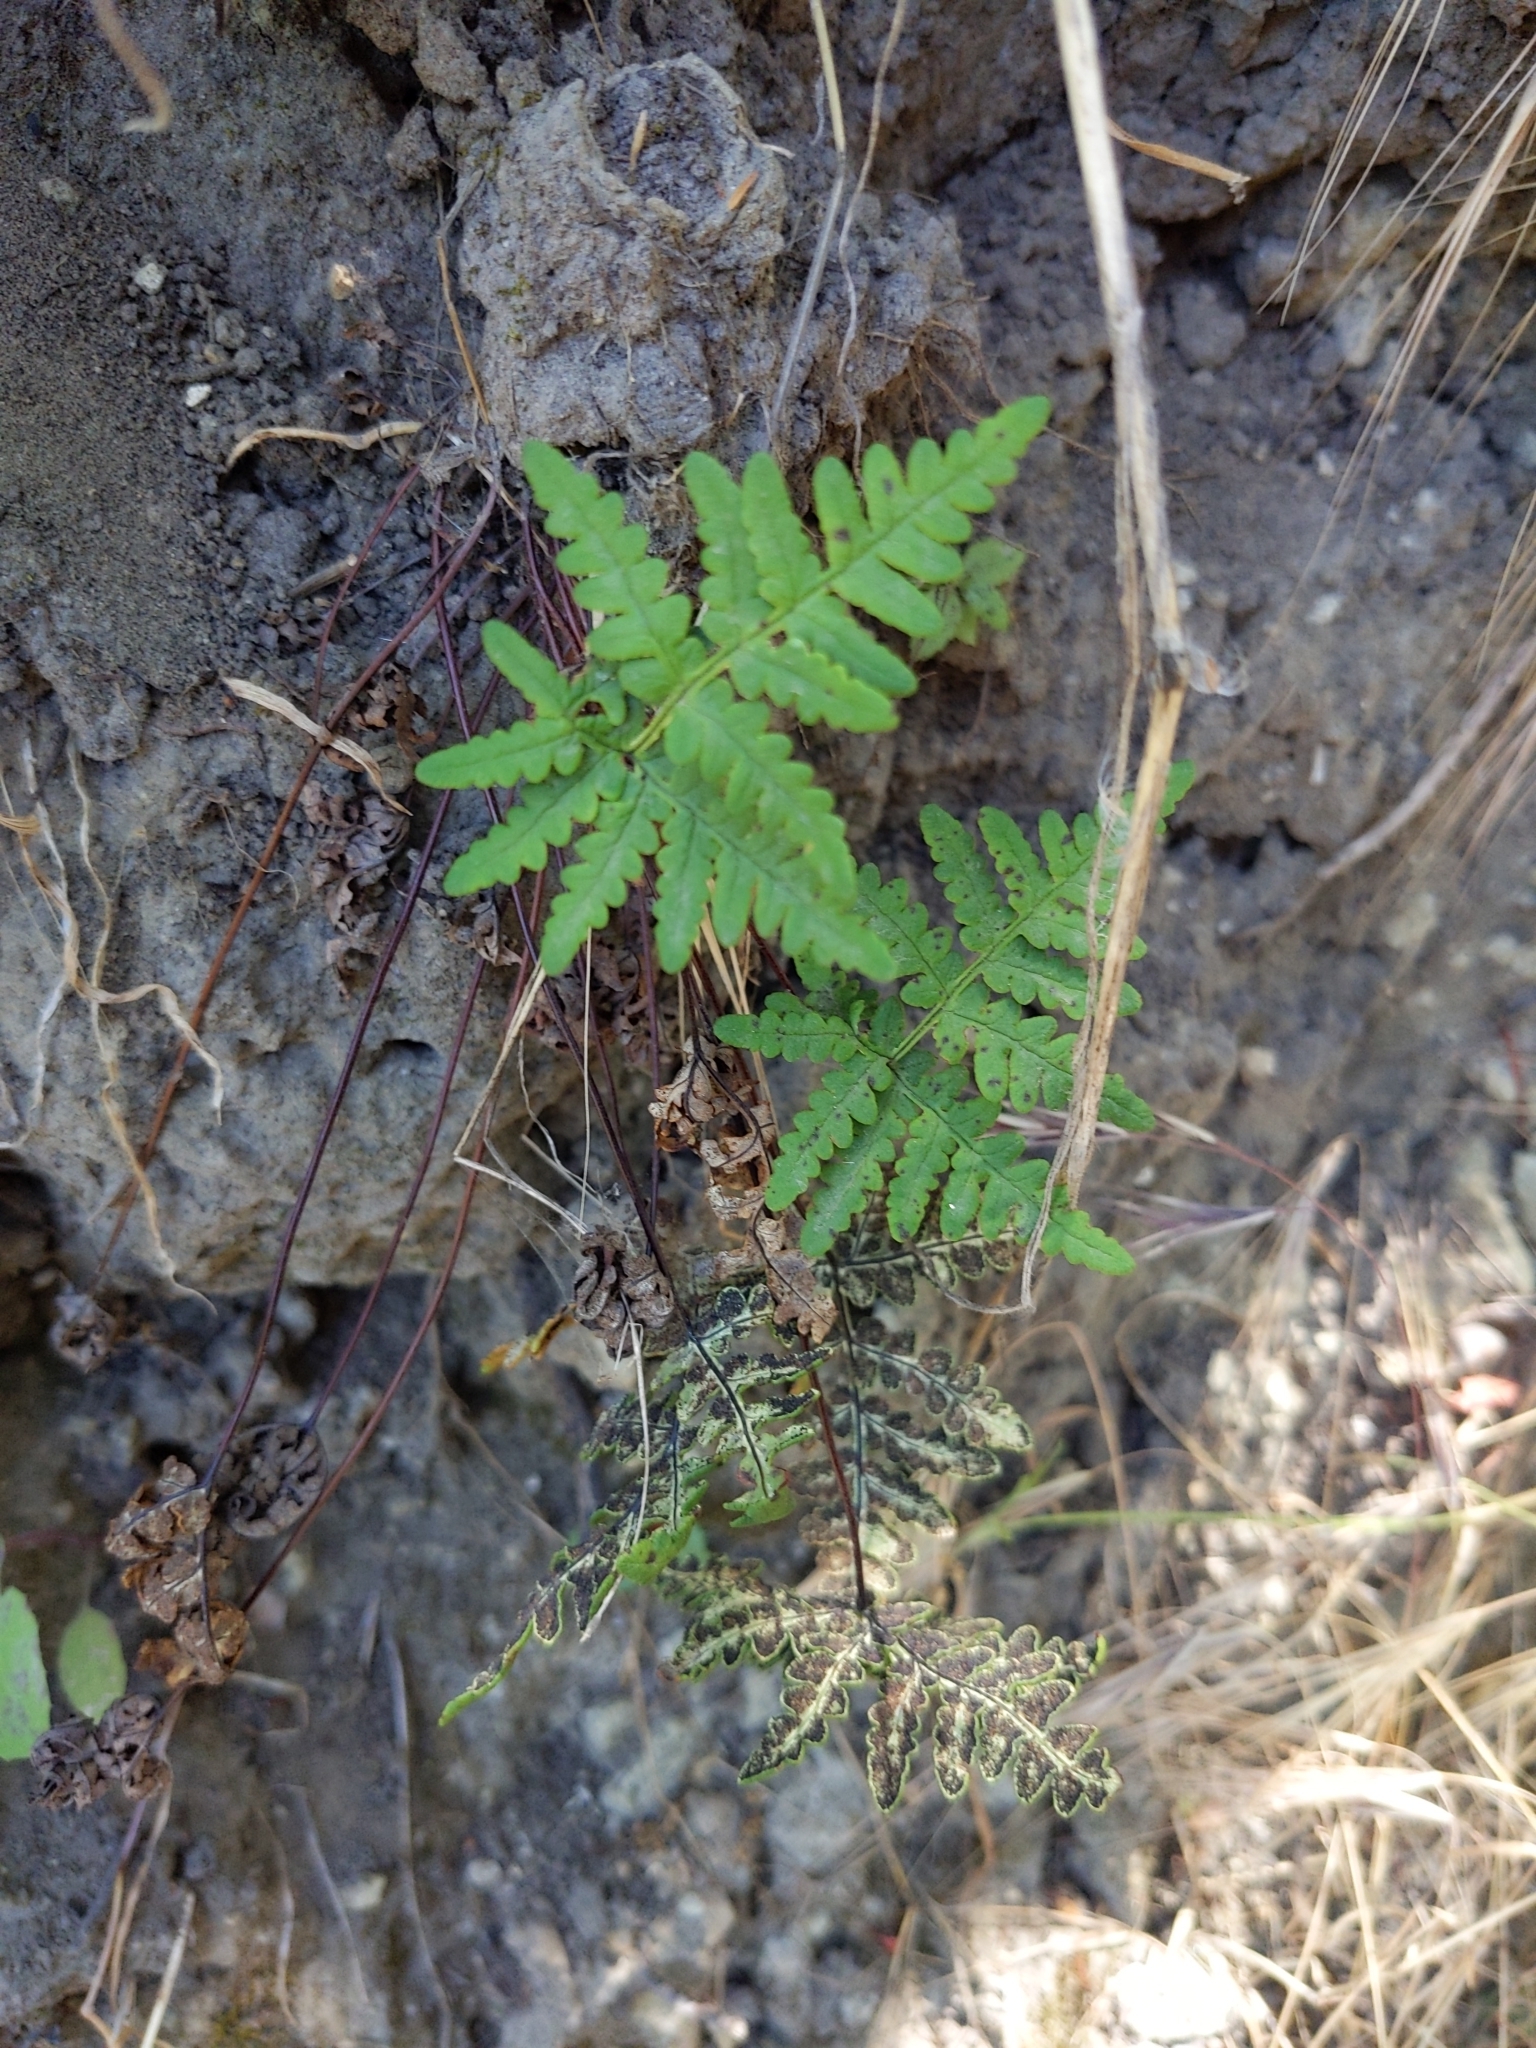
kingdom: Plantae
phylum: Tracheophyta
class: Polypodiopsida
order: Polypodiales
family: Pteridaceae
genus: Pentagramma
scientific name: Pentagramma triangularis
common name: Gold fern
